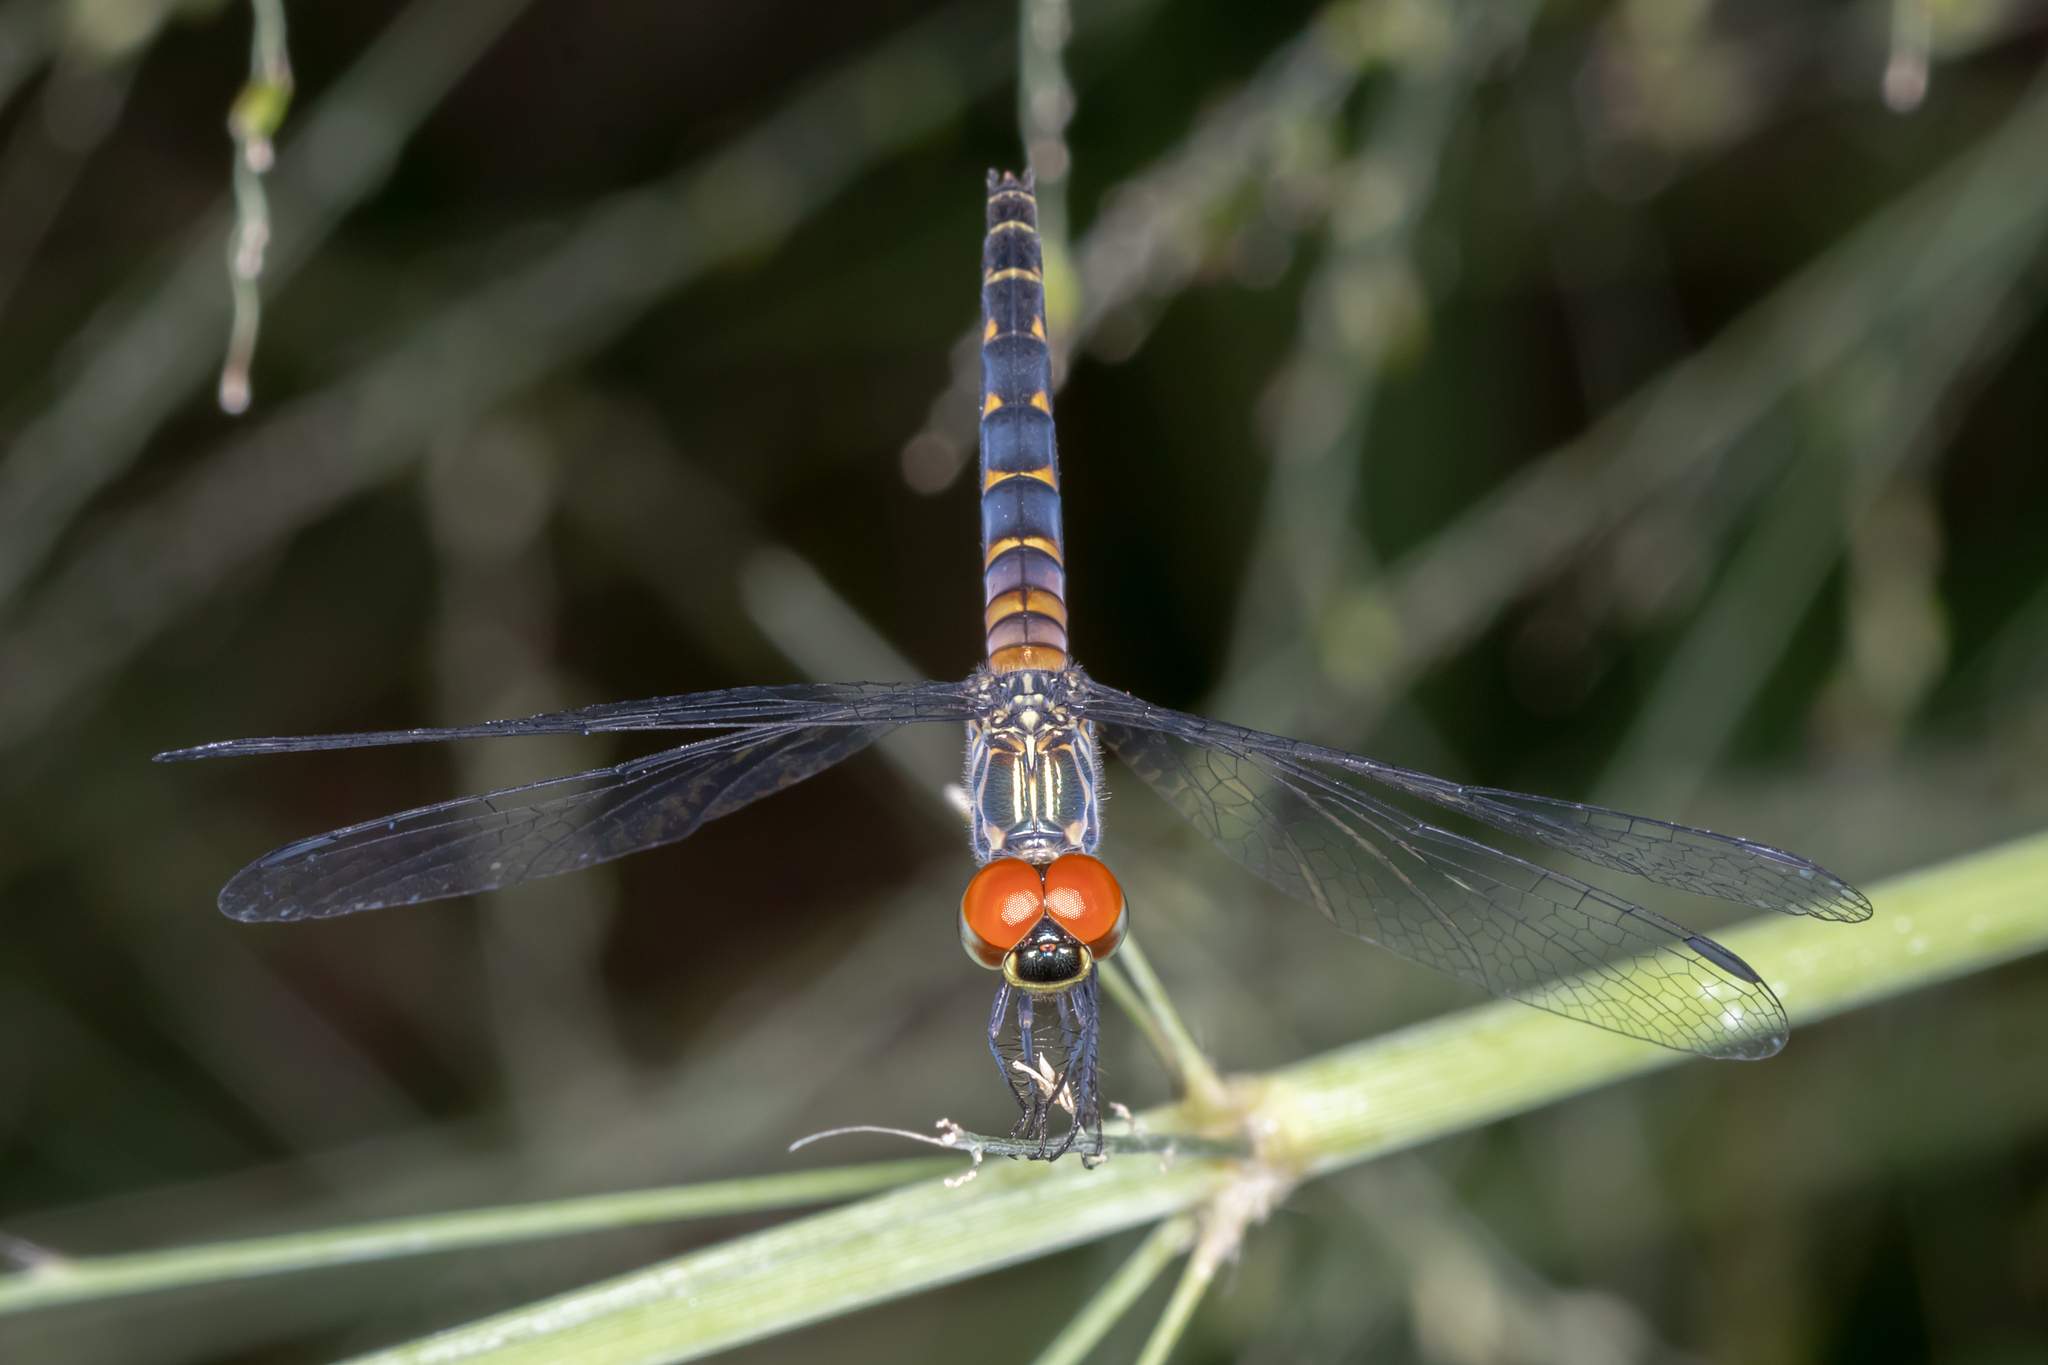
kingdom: Animalia
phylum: Arthropoda
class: Insecta
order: Odonata
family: Libellulidae
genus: Brachydiplax
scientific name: Brachydiplax denticauda
